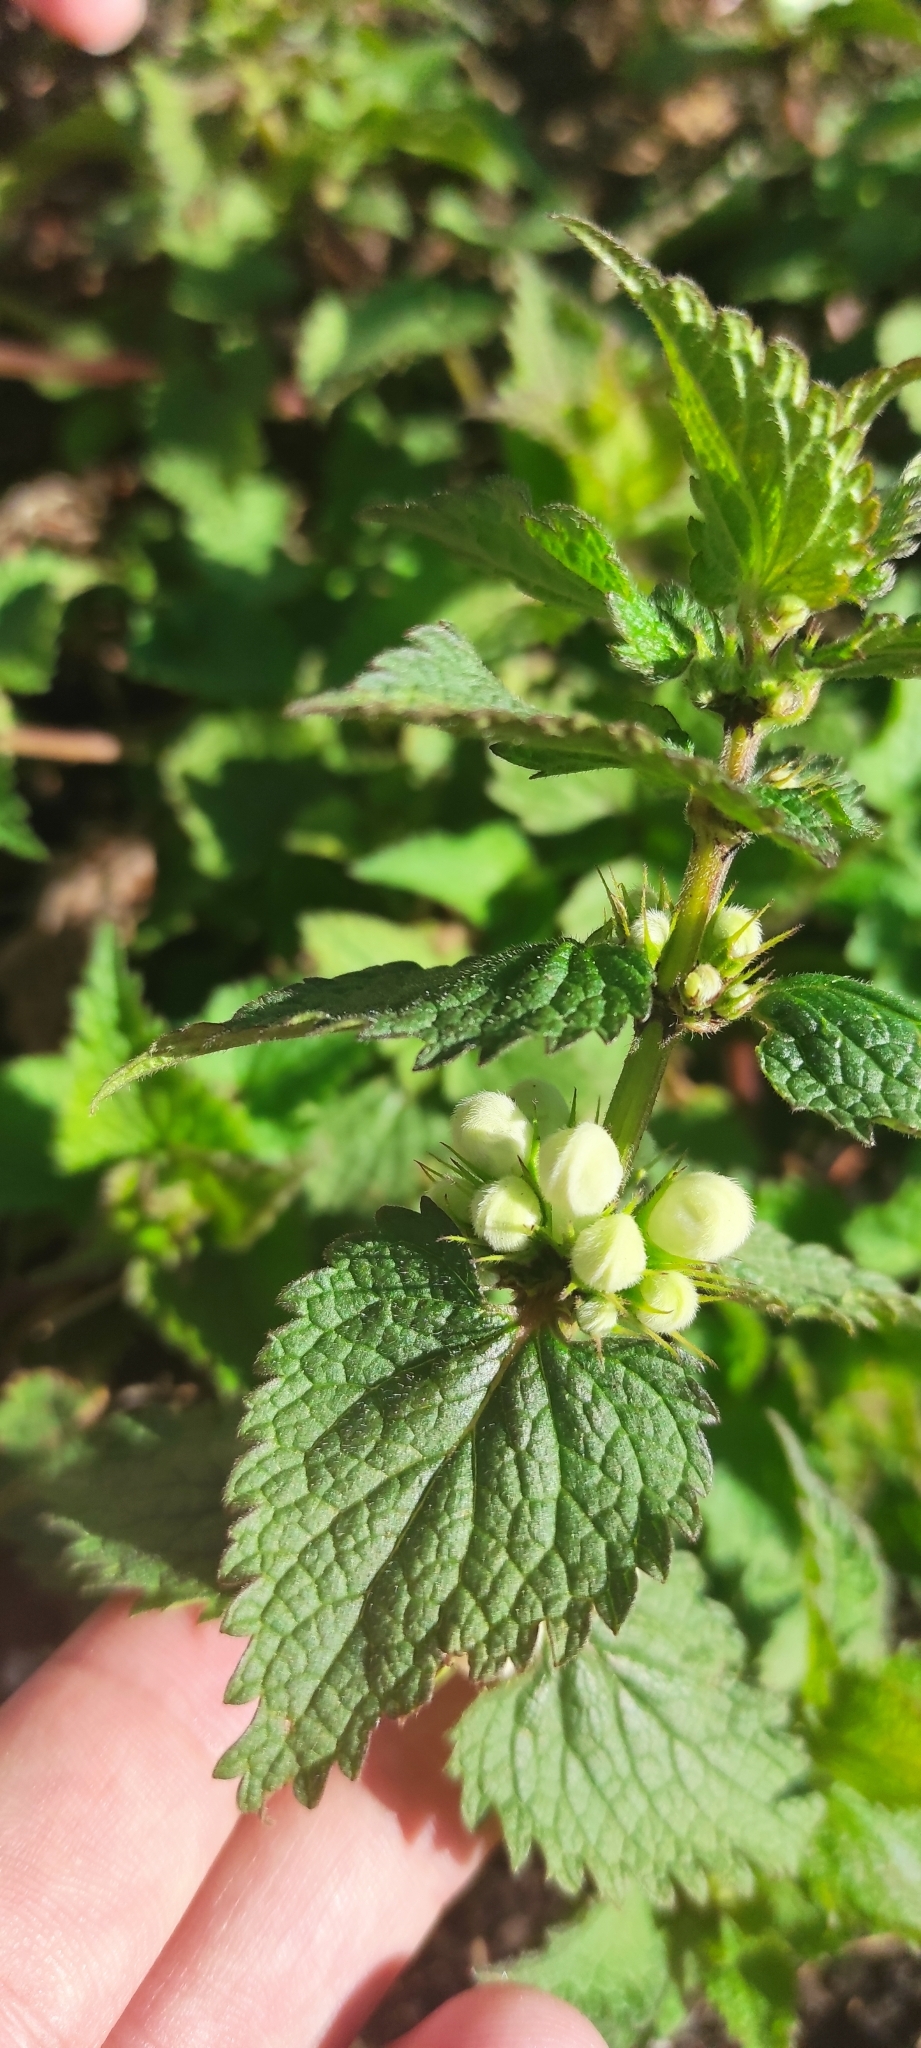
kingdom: Plantae
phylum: Tracheophyta
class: Magnoliopsida
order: Lamiales
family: Lamiaceae
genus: Lamium
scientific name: Lamium album
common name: White dead-nettle
